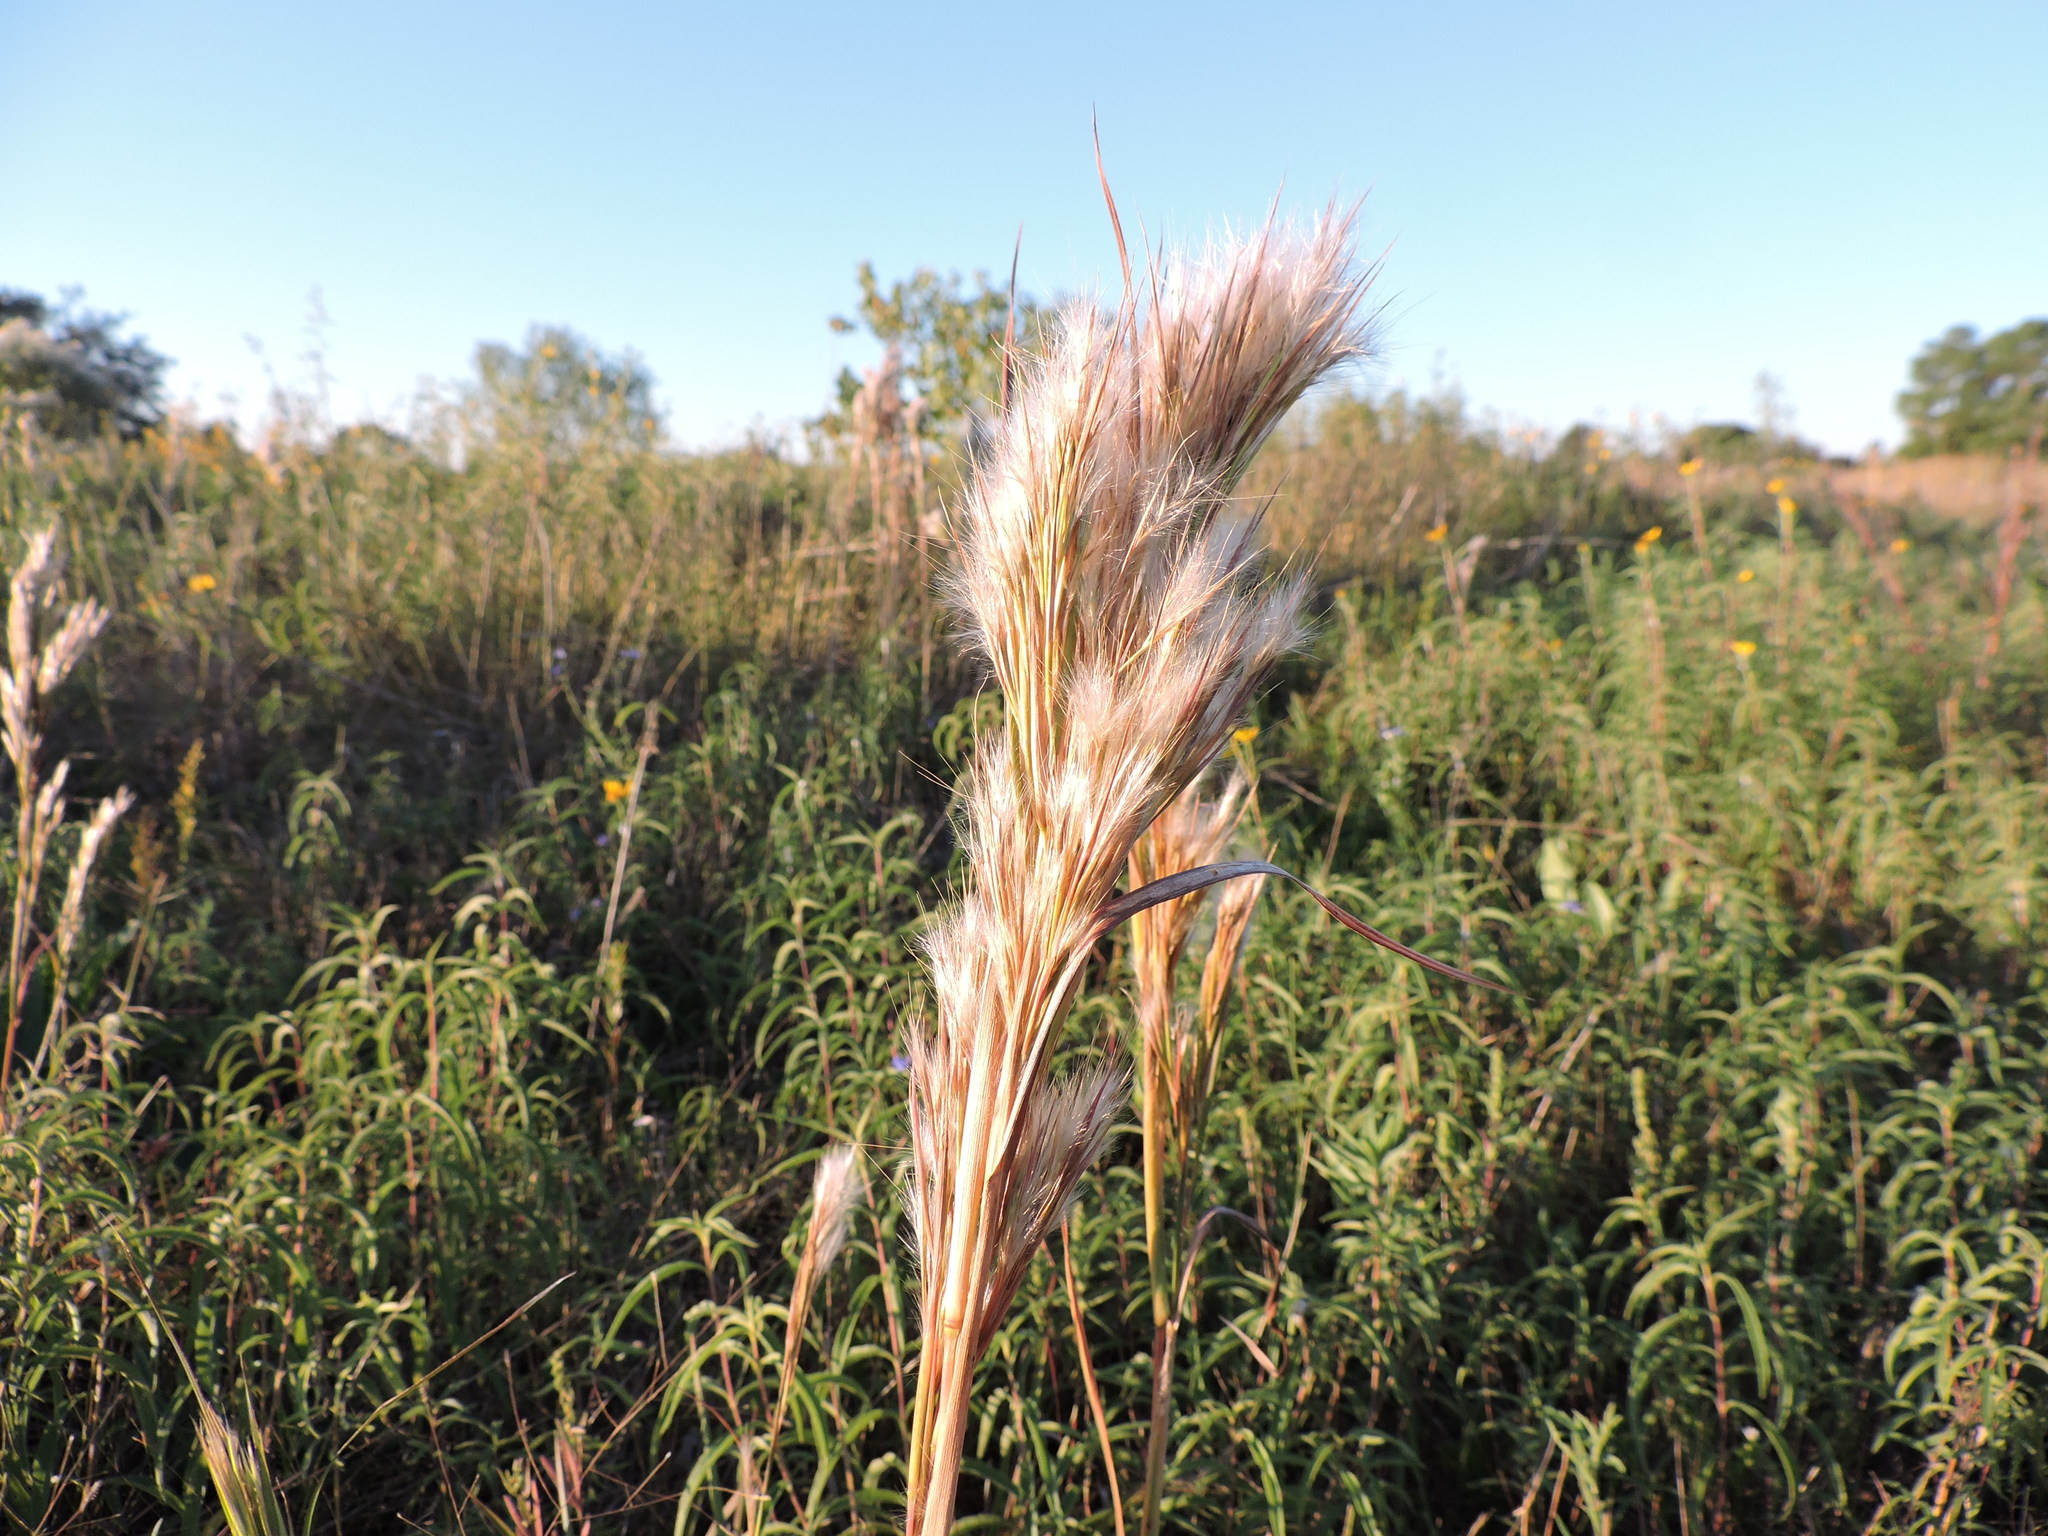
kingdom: Plantae
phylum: Tracheophyta
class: Liliopsida
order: Poales
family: Poaceae
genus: Andropogon
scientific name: Andropogon tenuispatheus
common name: Bushy bluestem
